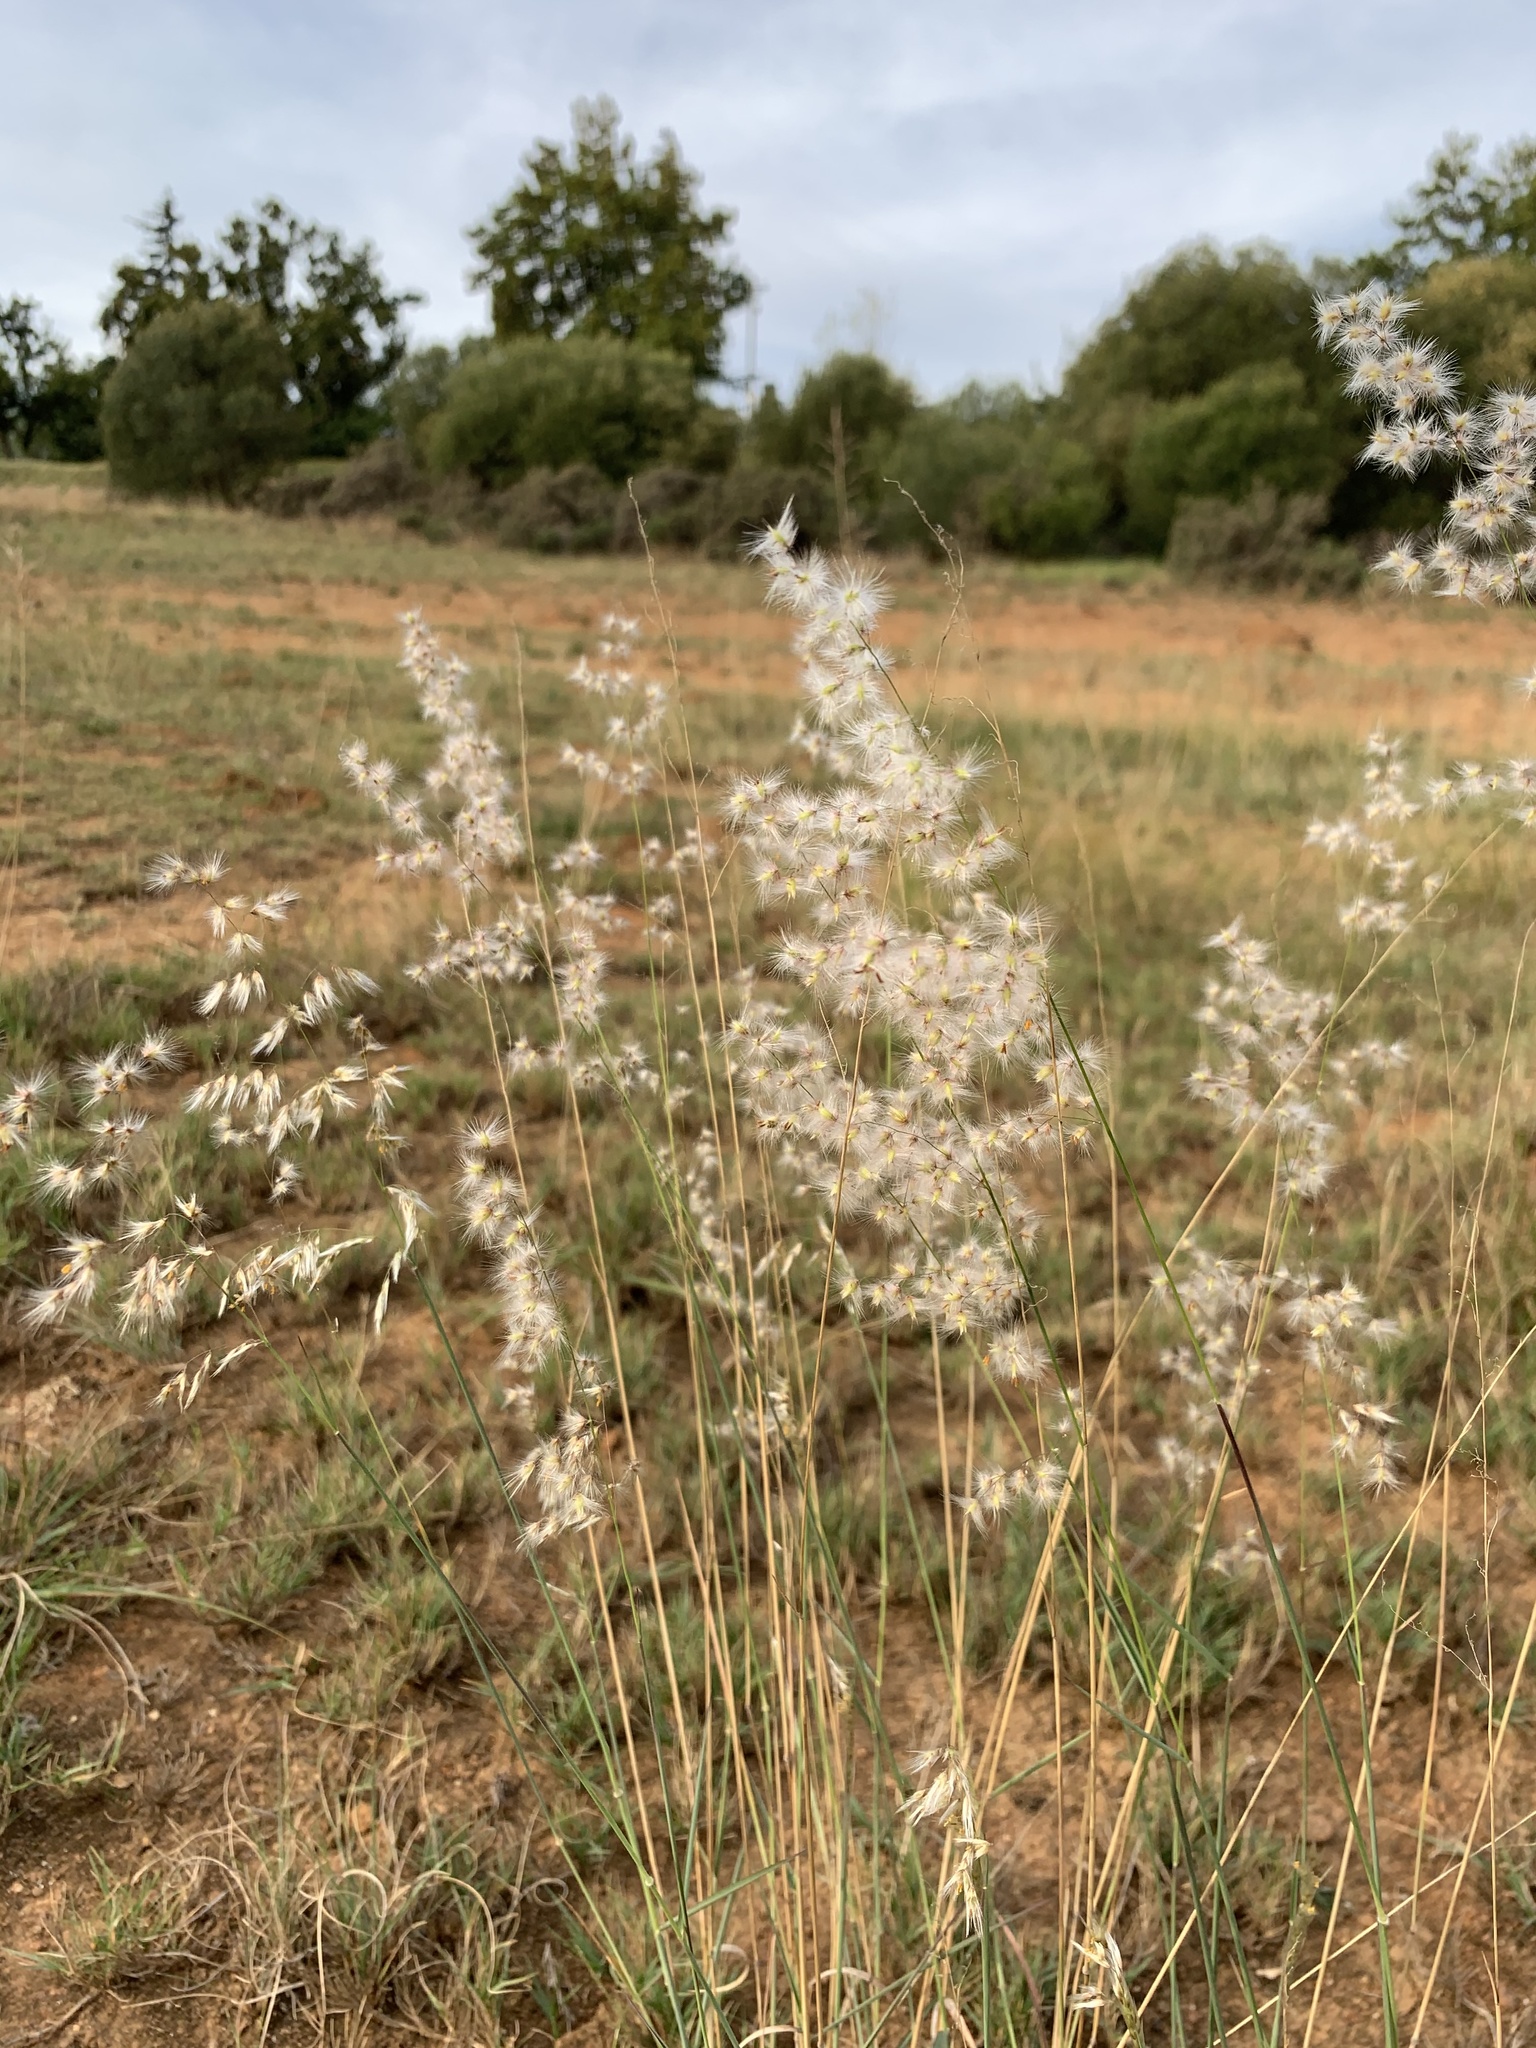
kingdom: Plantae
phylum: Tracheophyta
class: Liliopsida
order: Poales
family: Poaceae
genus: Melinis
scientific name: Melinis repens
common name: Rose natal grass
